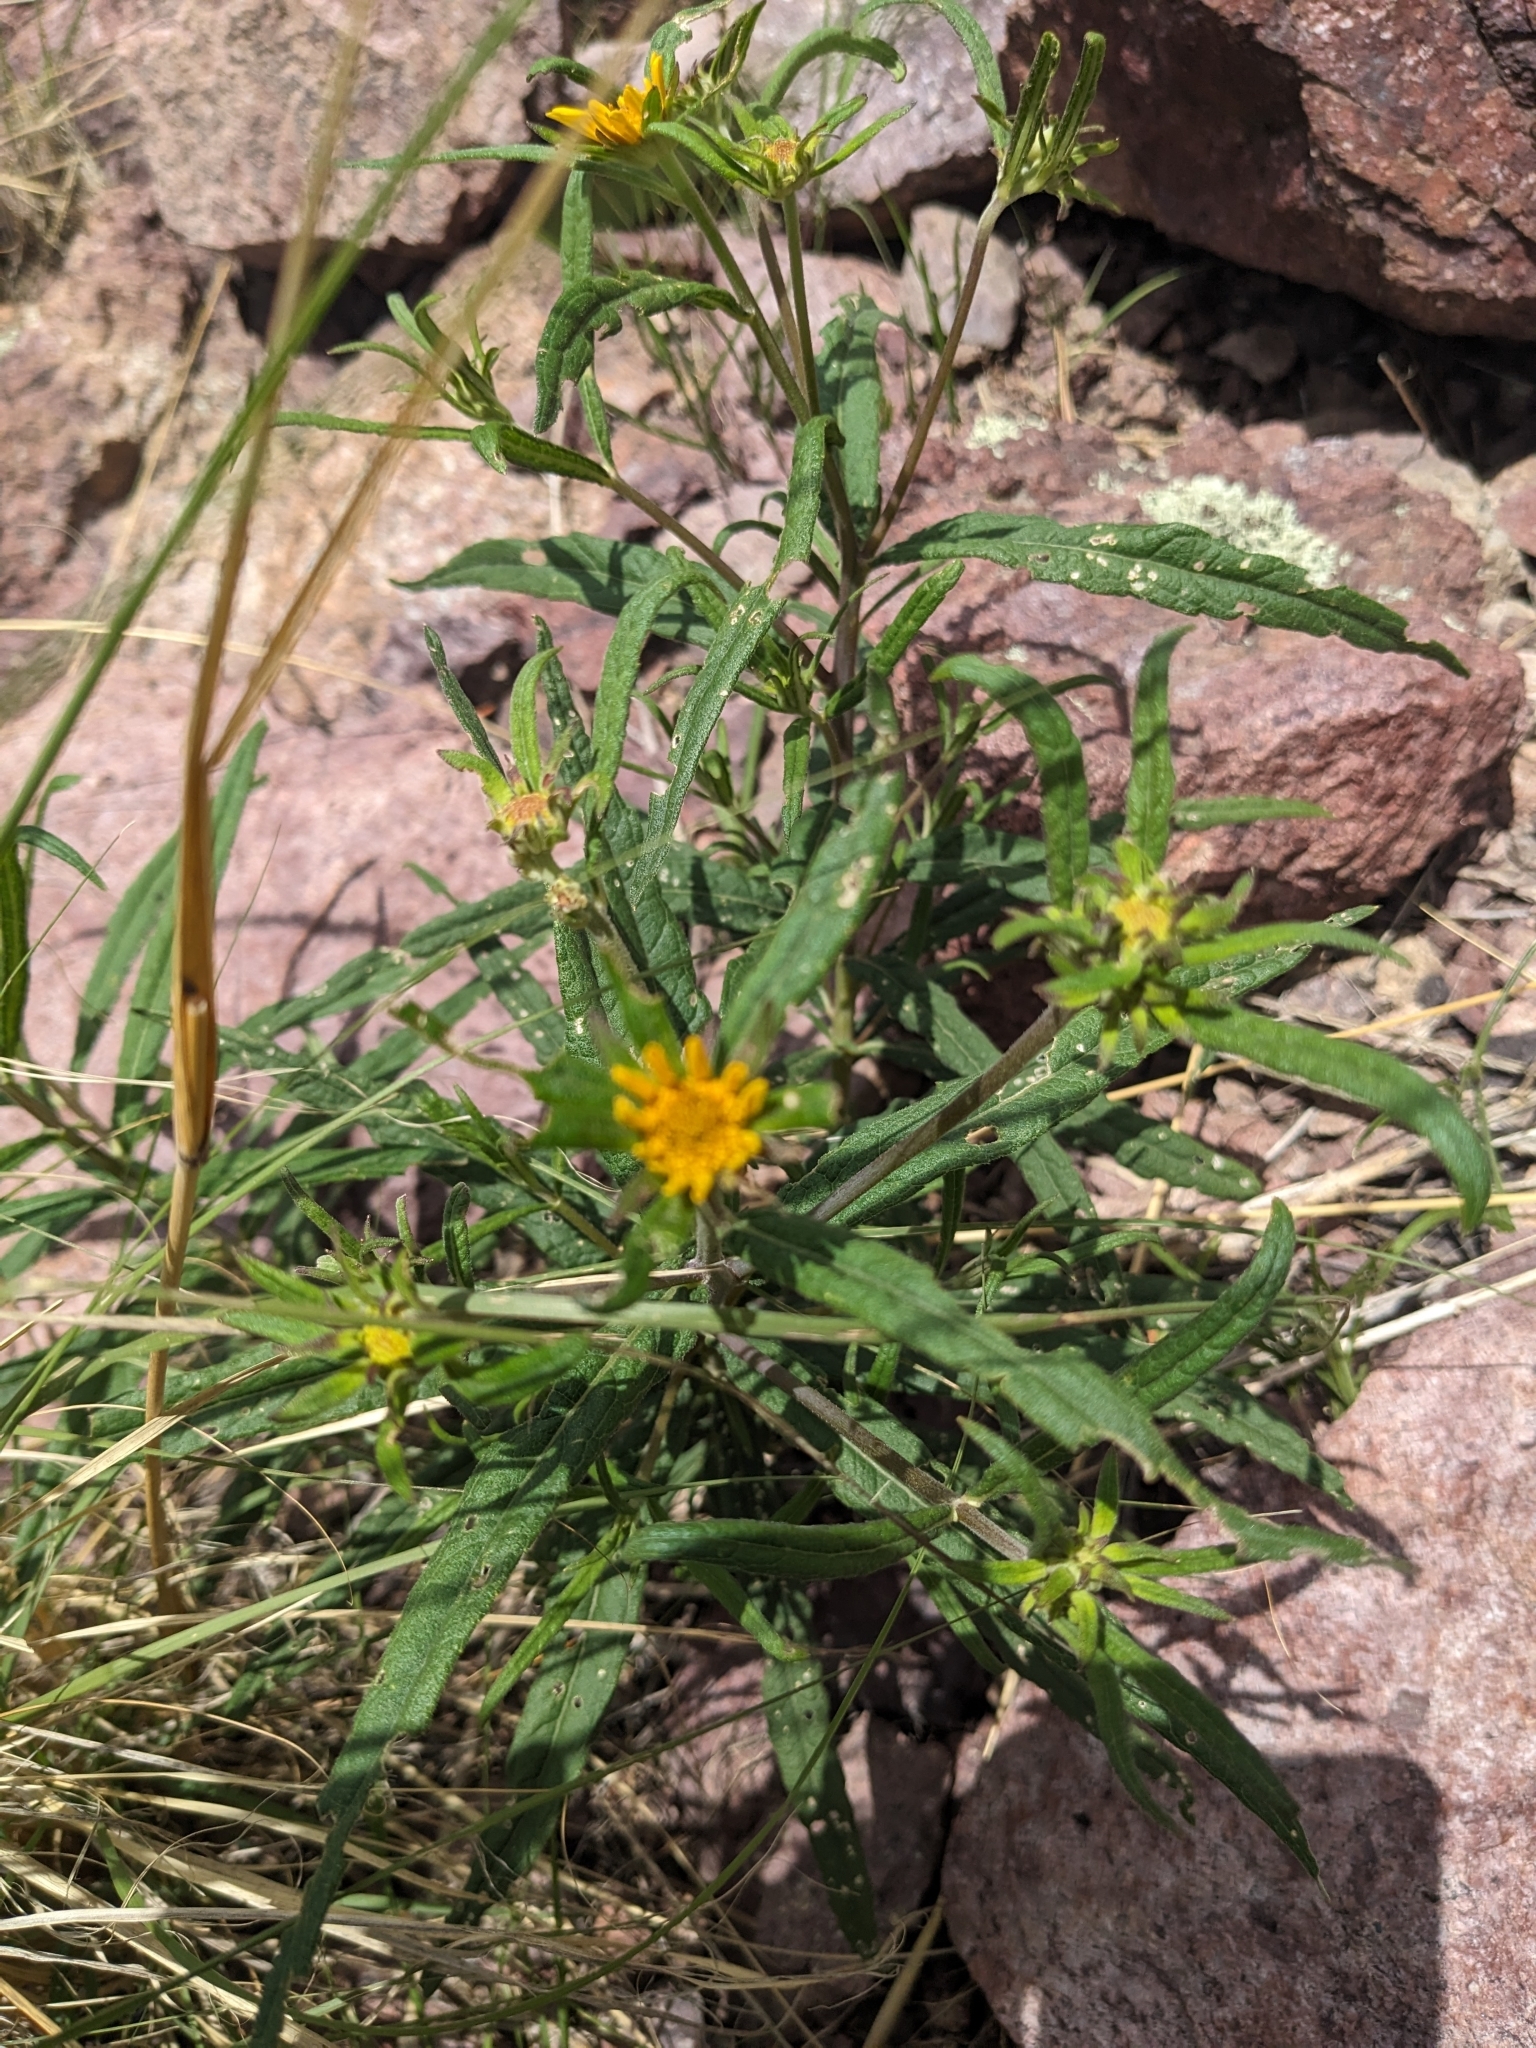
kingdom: Plantae
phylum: Tracheophyta
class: Magnoliopsida
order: Asterales
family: Asteraceae
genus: Verbesina
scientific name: Verbesina longifolia
